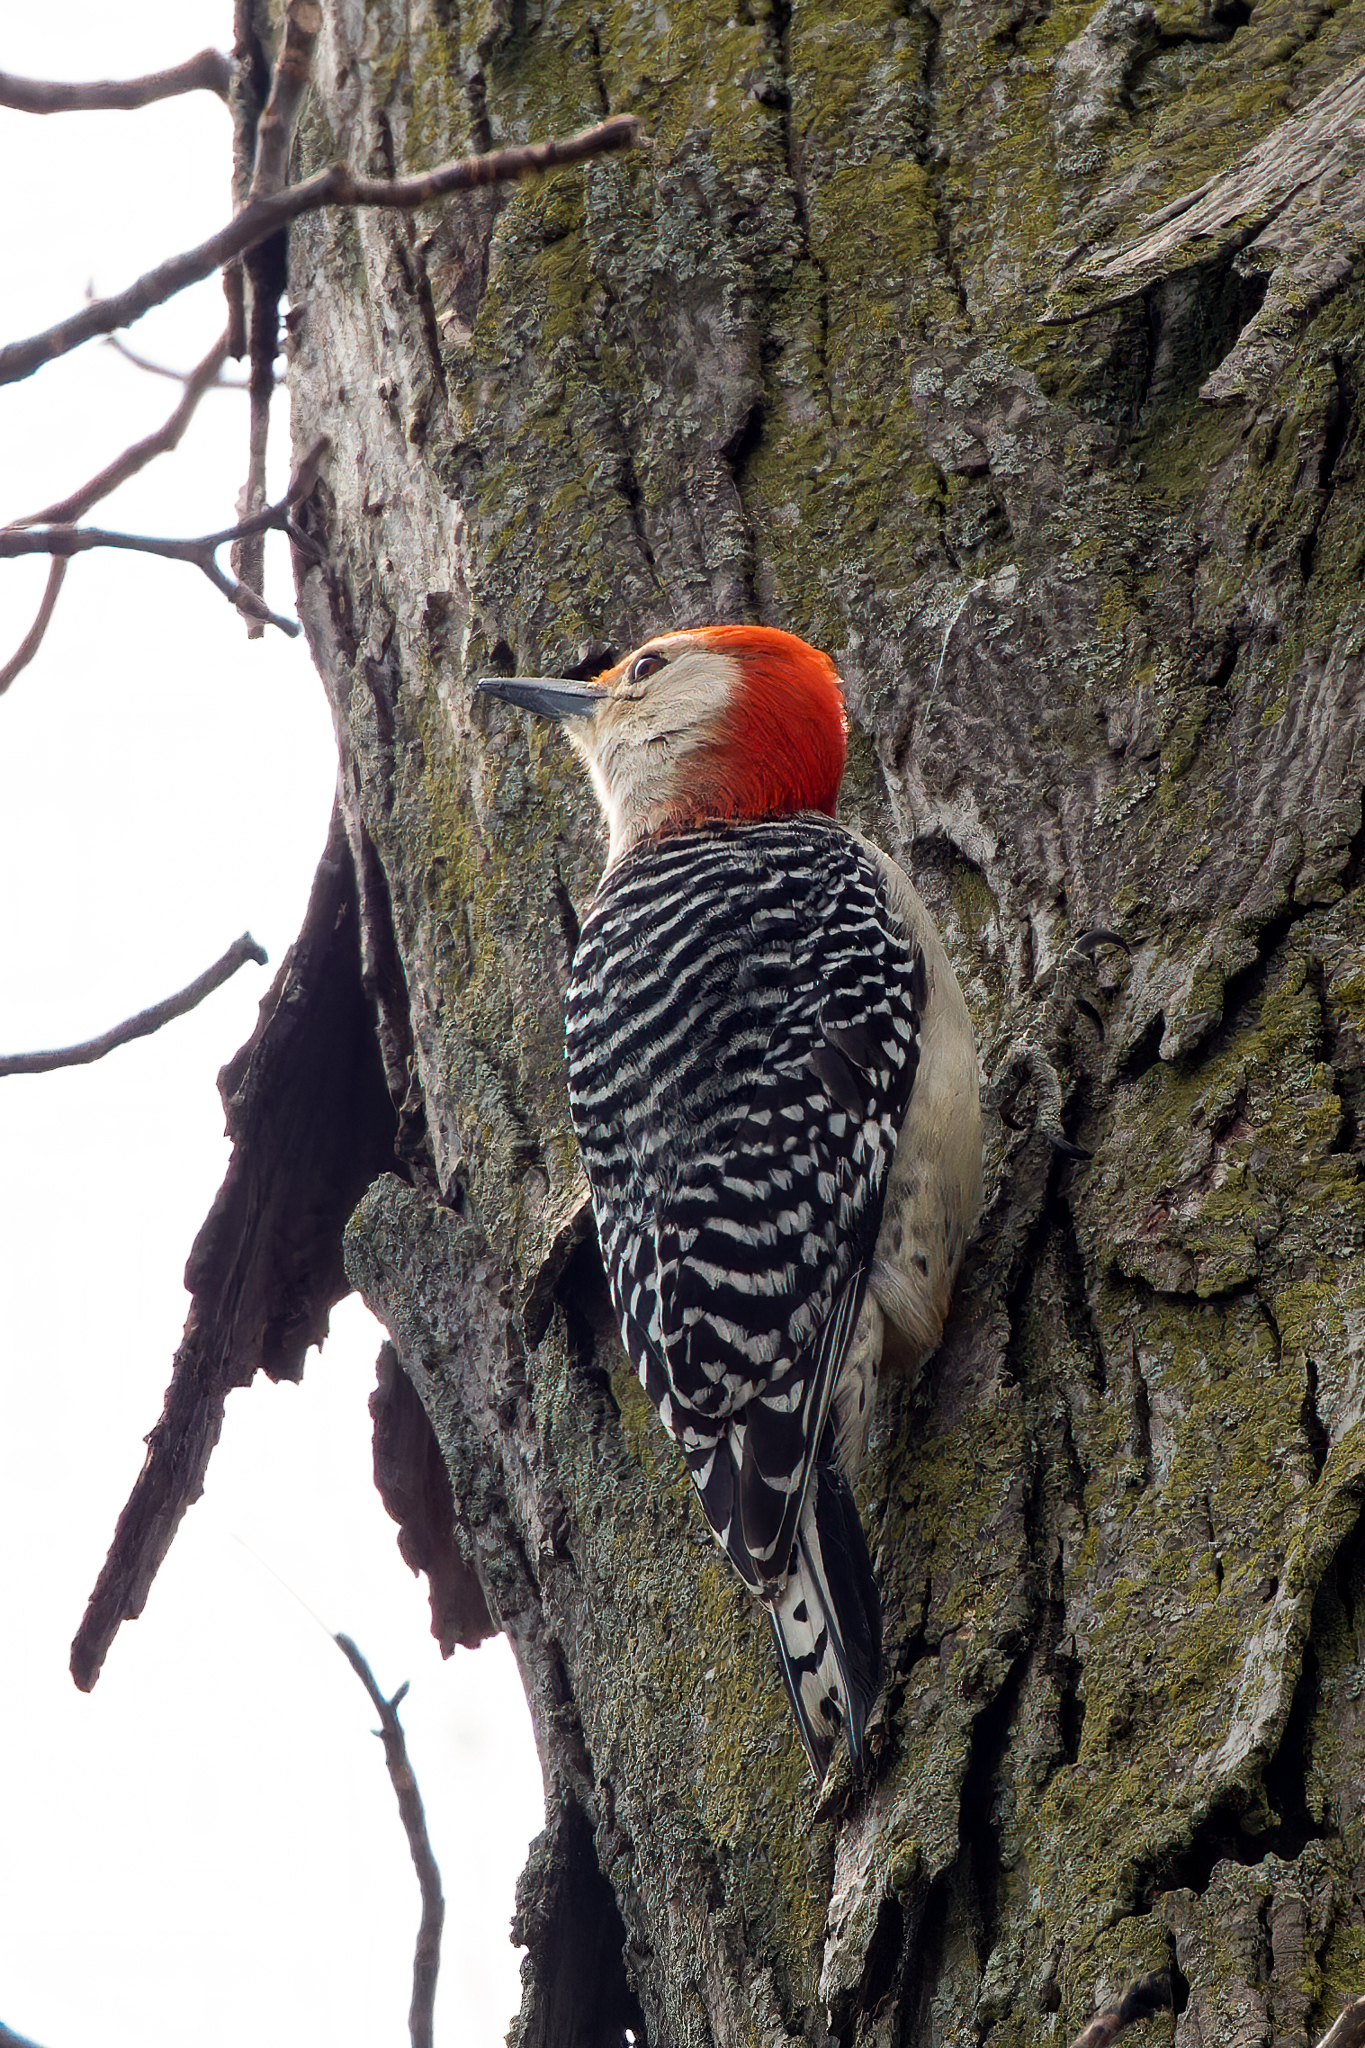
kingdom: Animalia
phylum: Chordata
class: Aves
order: Piciformes
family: Picidae
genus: Melanerpes
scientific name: Melanerpes carolinus
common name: Red-bellied woodpecker
